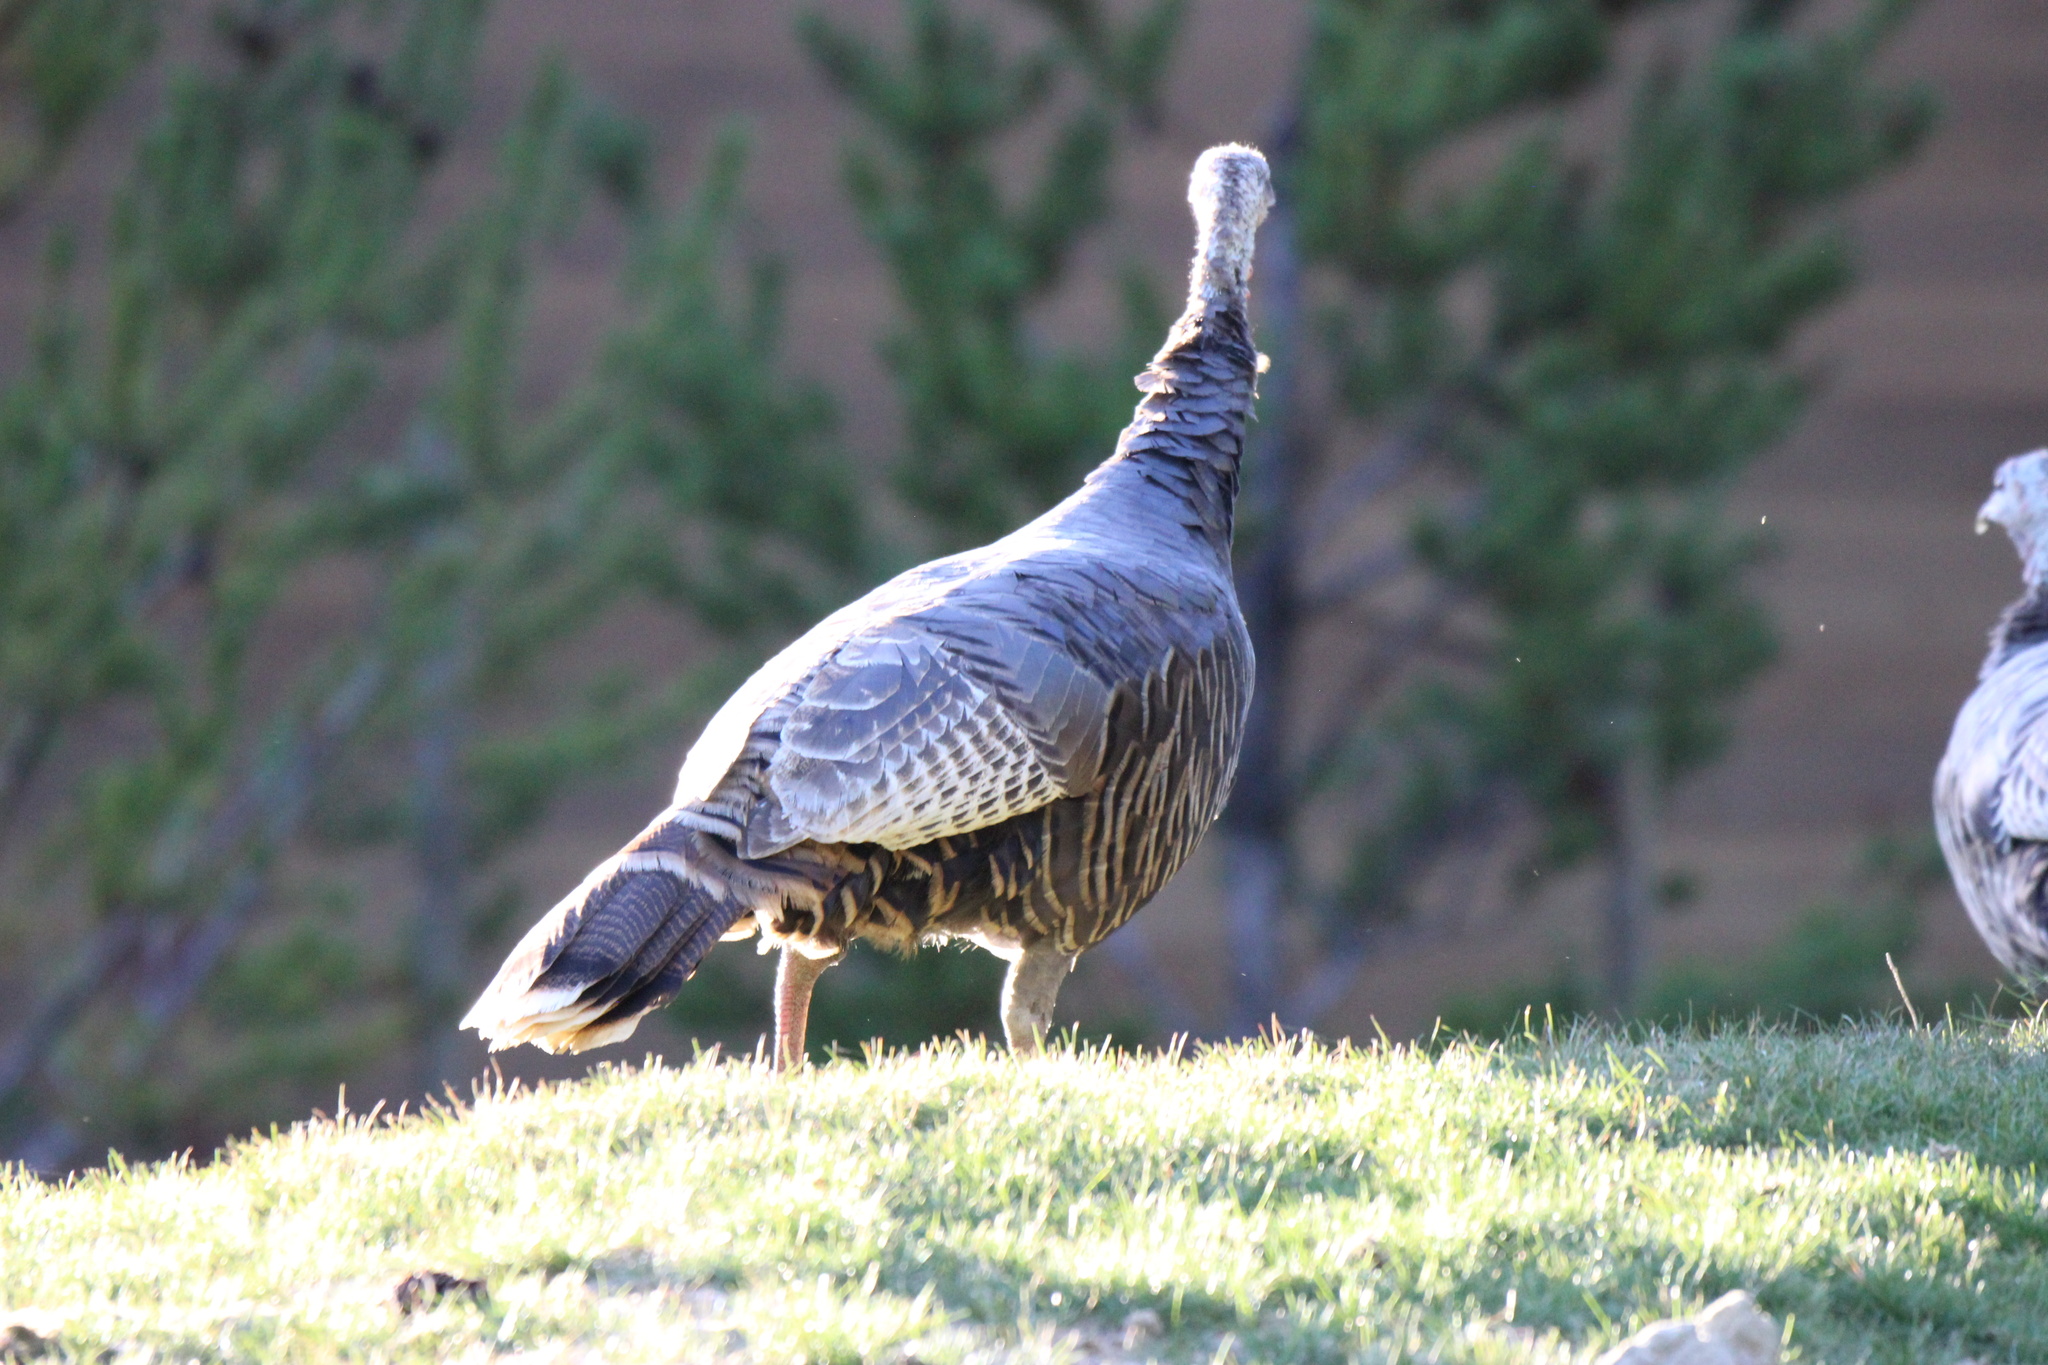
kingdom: Animalia
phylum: Chordata
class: Aves
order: Galliformes
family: Phasianidae
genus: Meleagris
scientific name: Meleagris gallopavo
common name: Wild turkey
